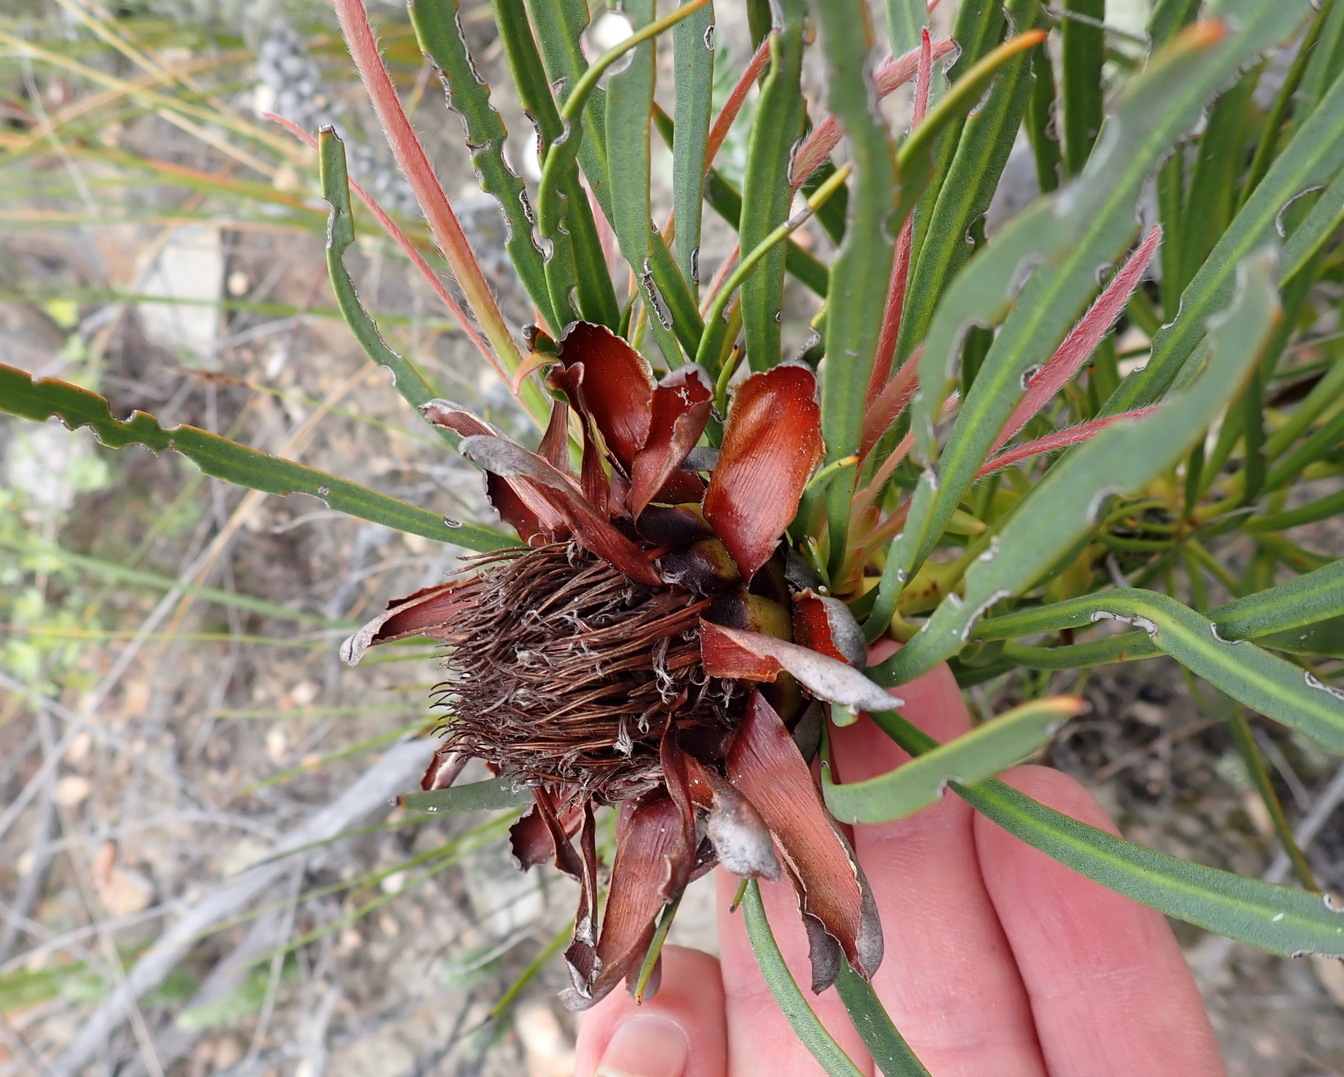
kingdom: Plantae
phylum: Tracheophyta
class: Magnoliopsida
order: Proteales
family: Proteaceae
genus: Protea
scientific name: Protea montana
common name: Swartberg sugarbush
